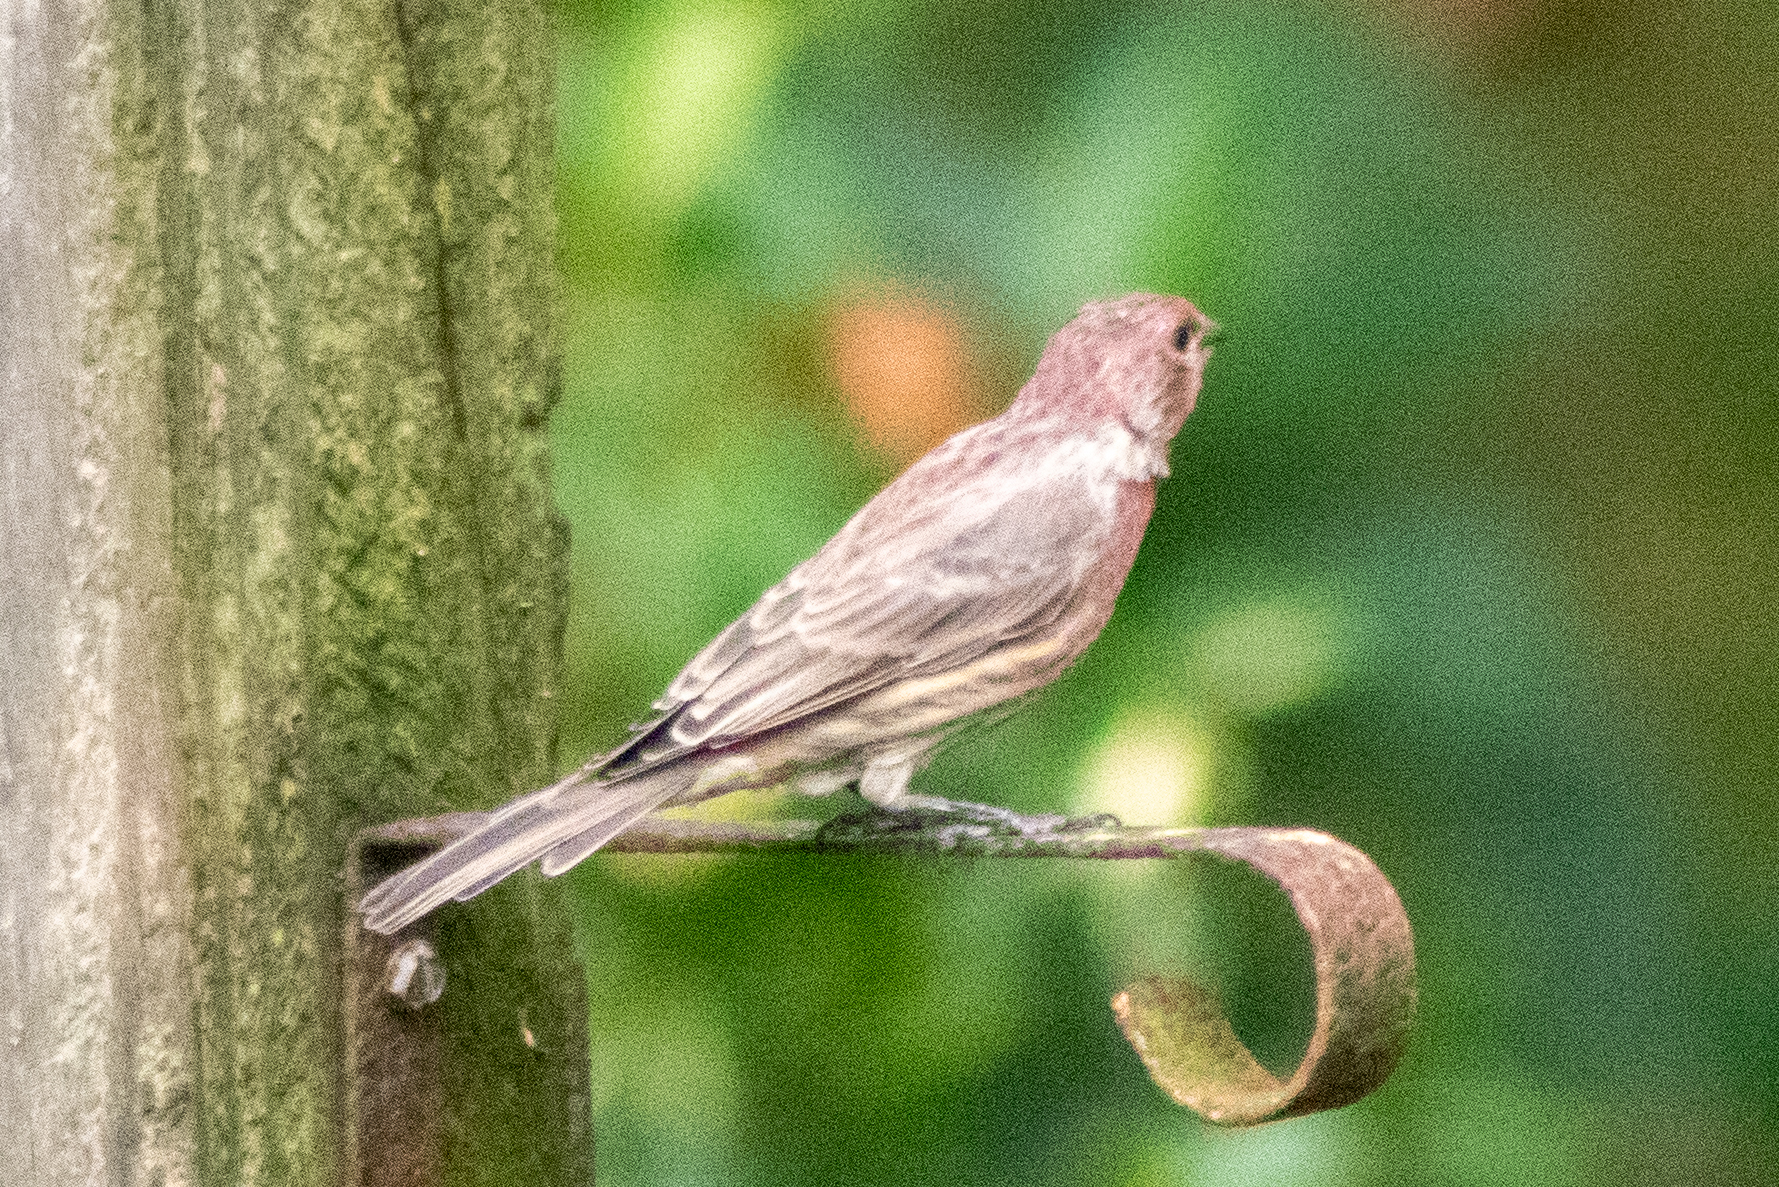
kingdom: Animalia
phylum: Chordata
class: Aves
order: Passeriformes
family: Fringillidae
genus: Haemorhous
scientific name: Haemorhous mexicanus
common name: House finch
